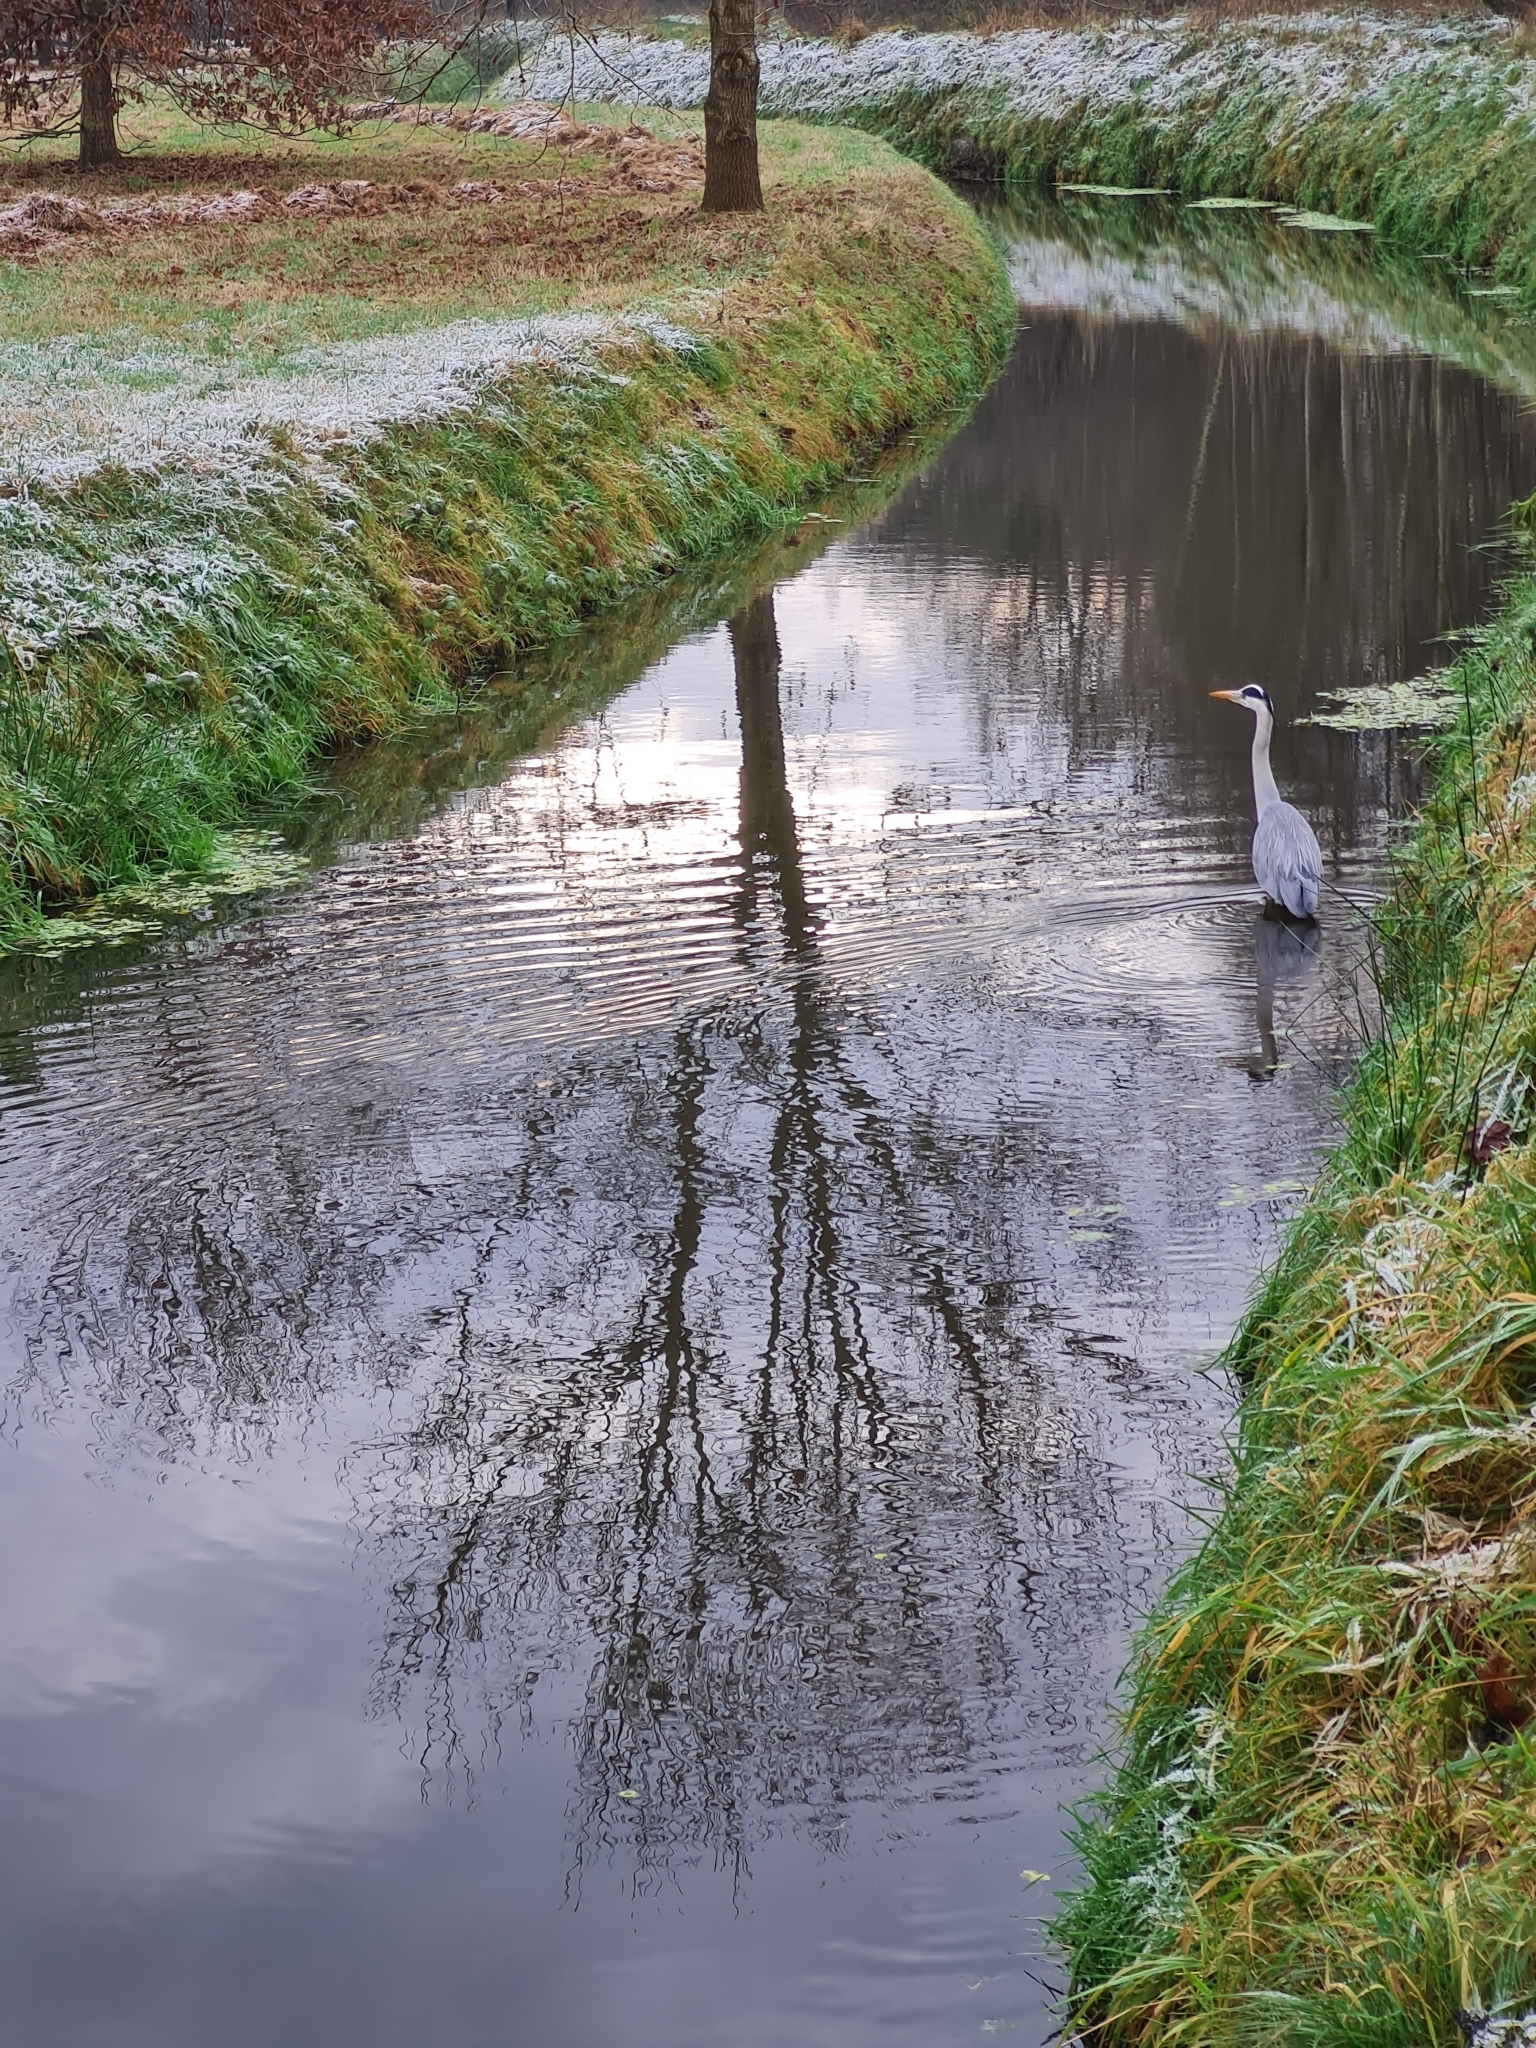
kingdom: Animalia
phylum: Chordata
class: Aves
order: Pelecaniformes
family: Ardeidae
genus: Ardea
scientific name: Ardea cinerea
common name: Grey heron
